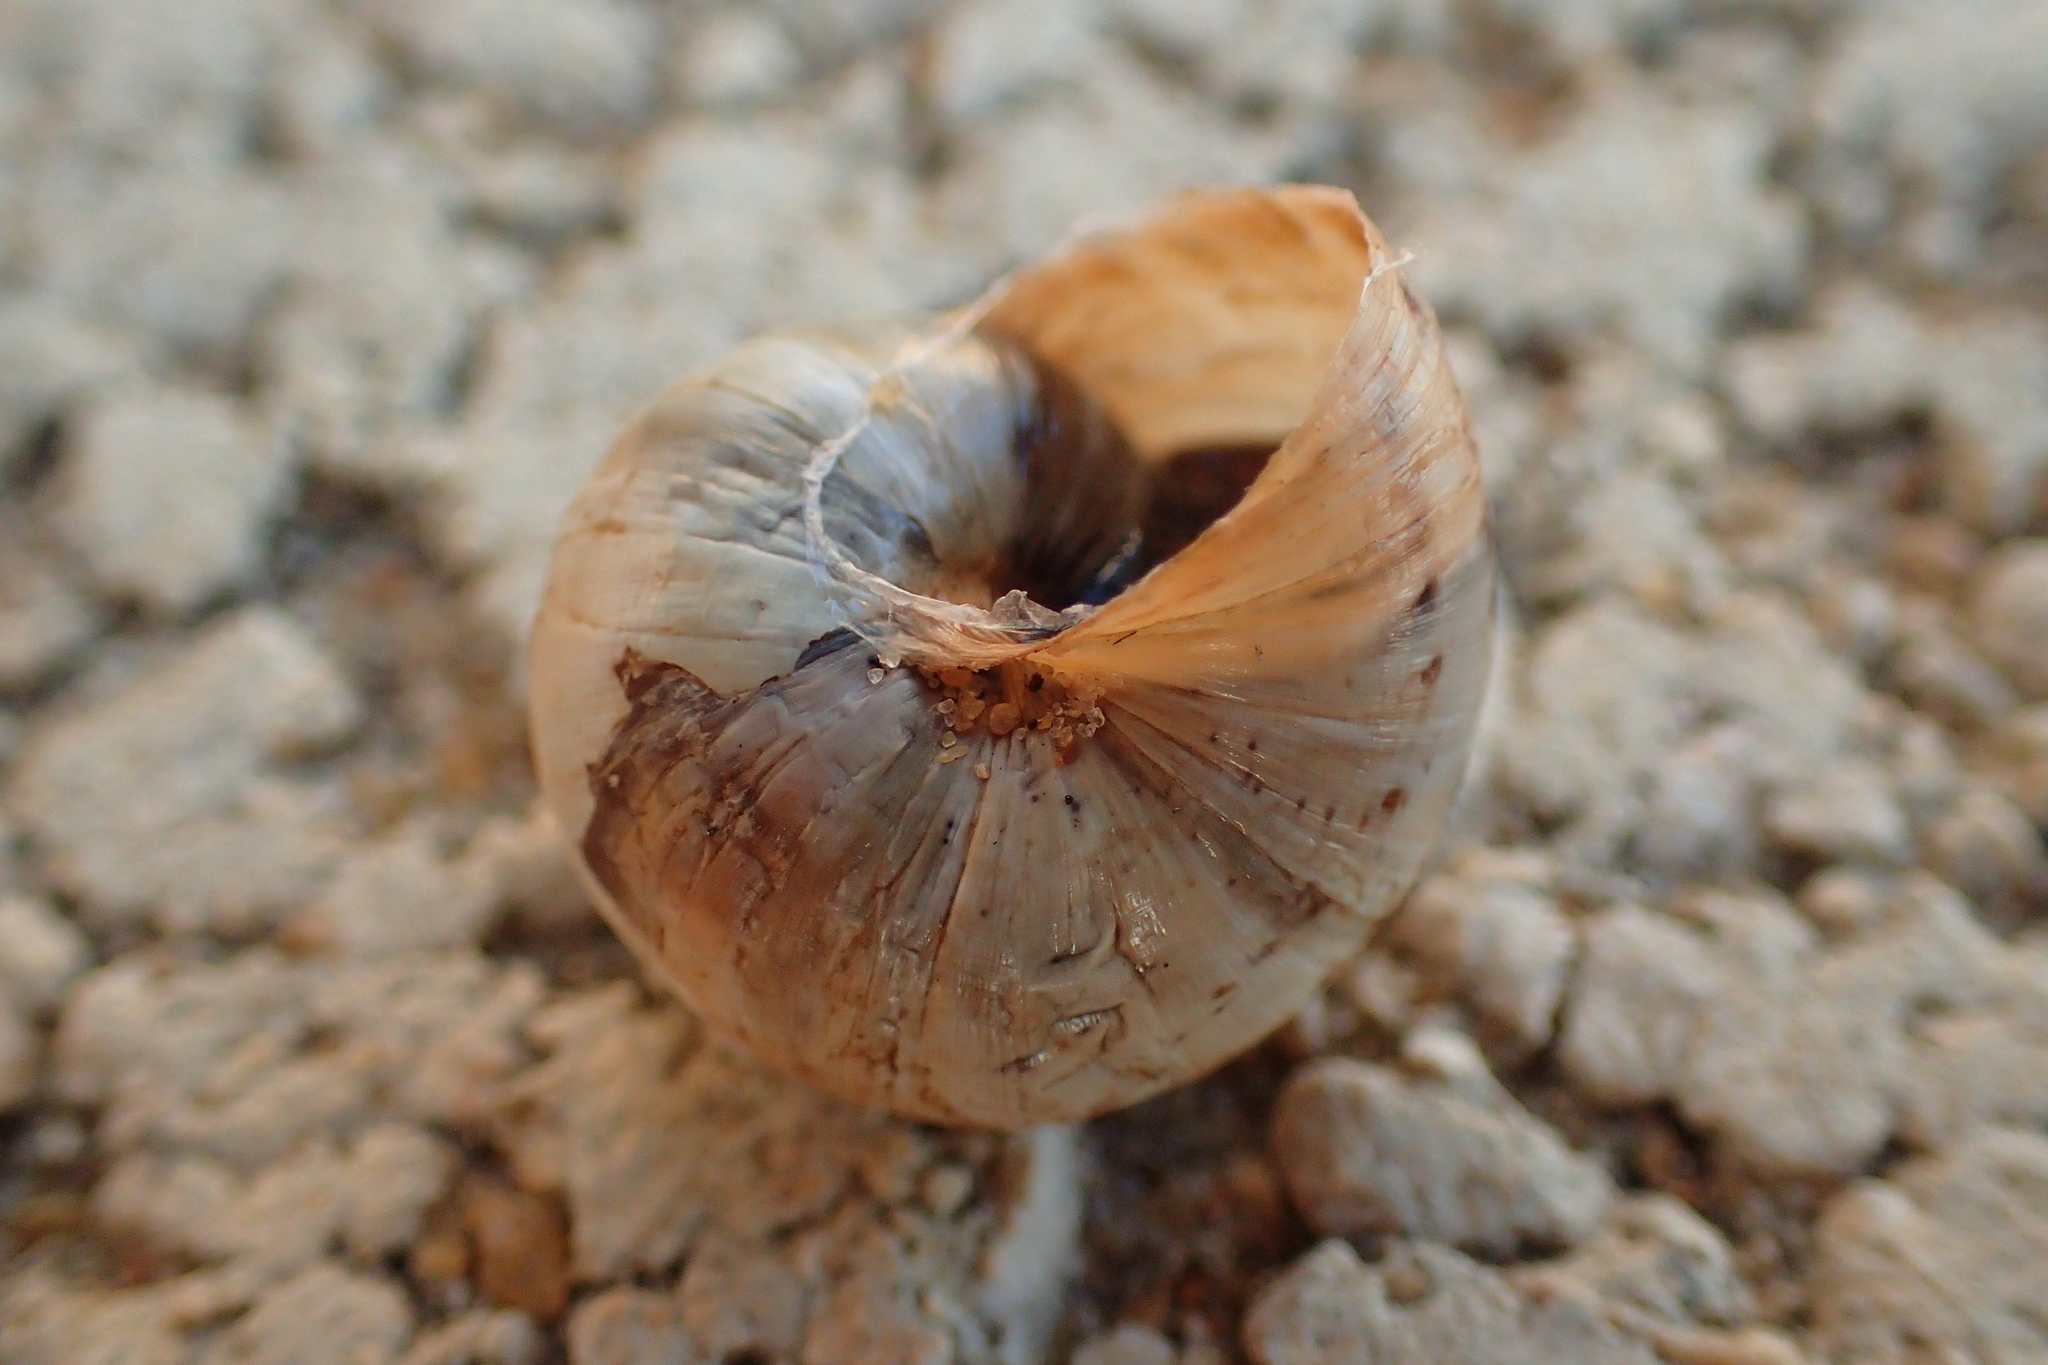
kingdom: Animalia
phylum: Mollusca
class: Gastropoda
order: Stylommatophora
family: Helicidae
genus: Theba
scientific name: Theba pisana
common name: White snail
